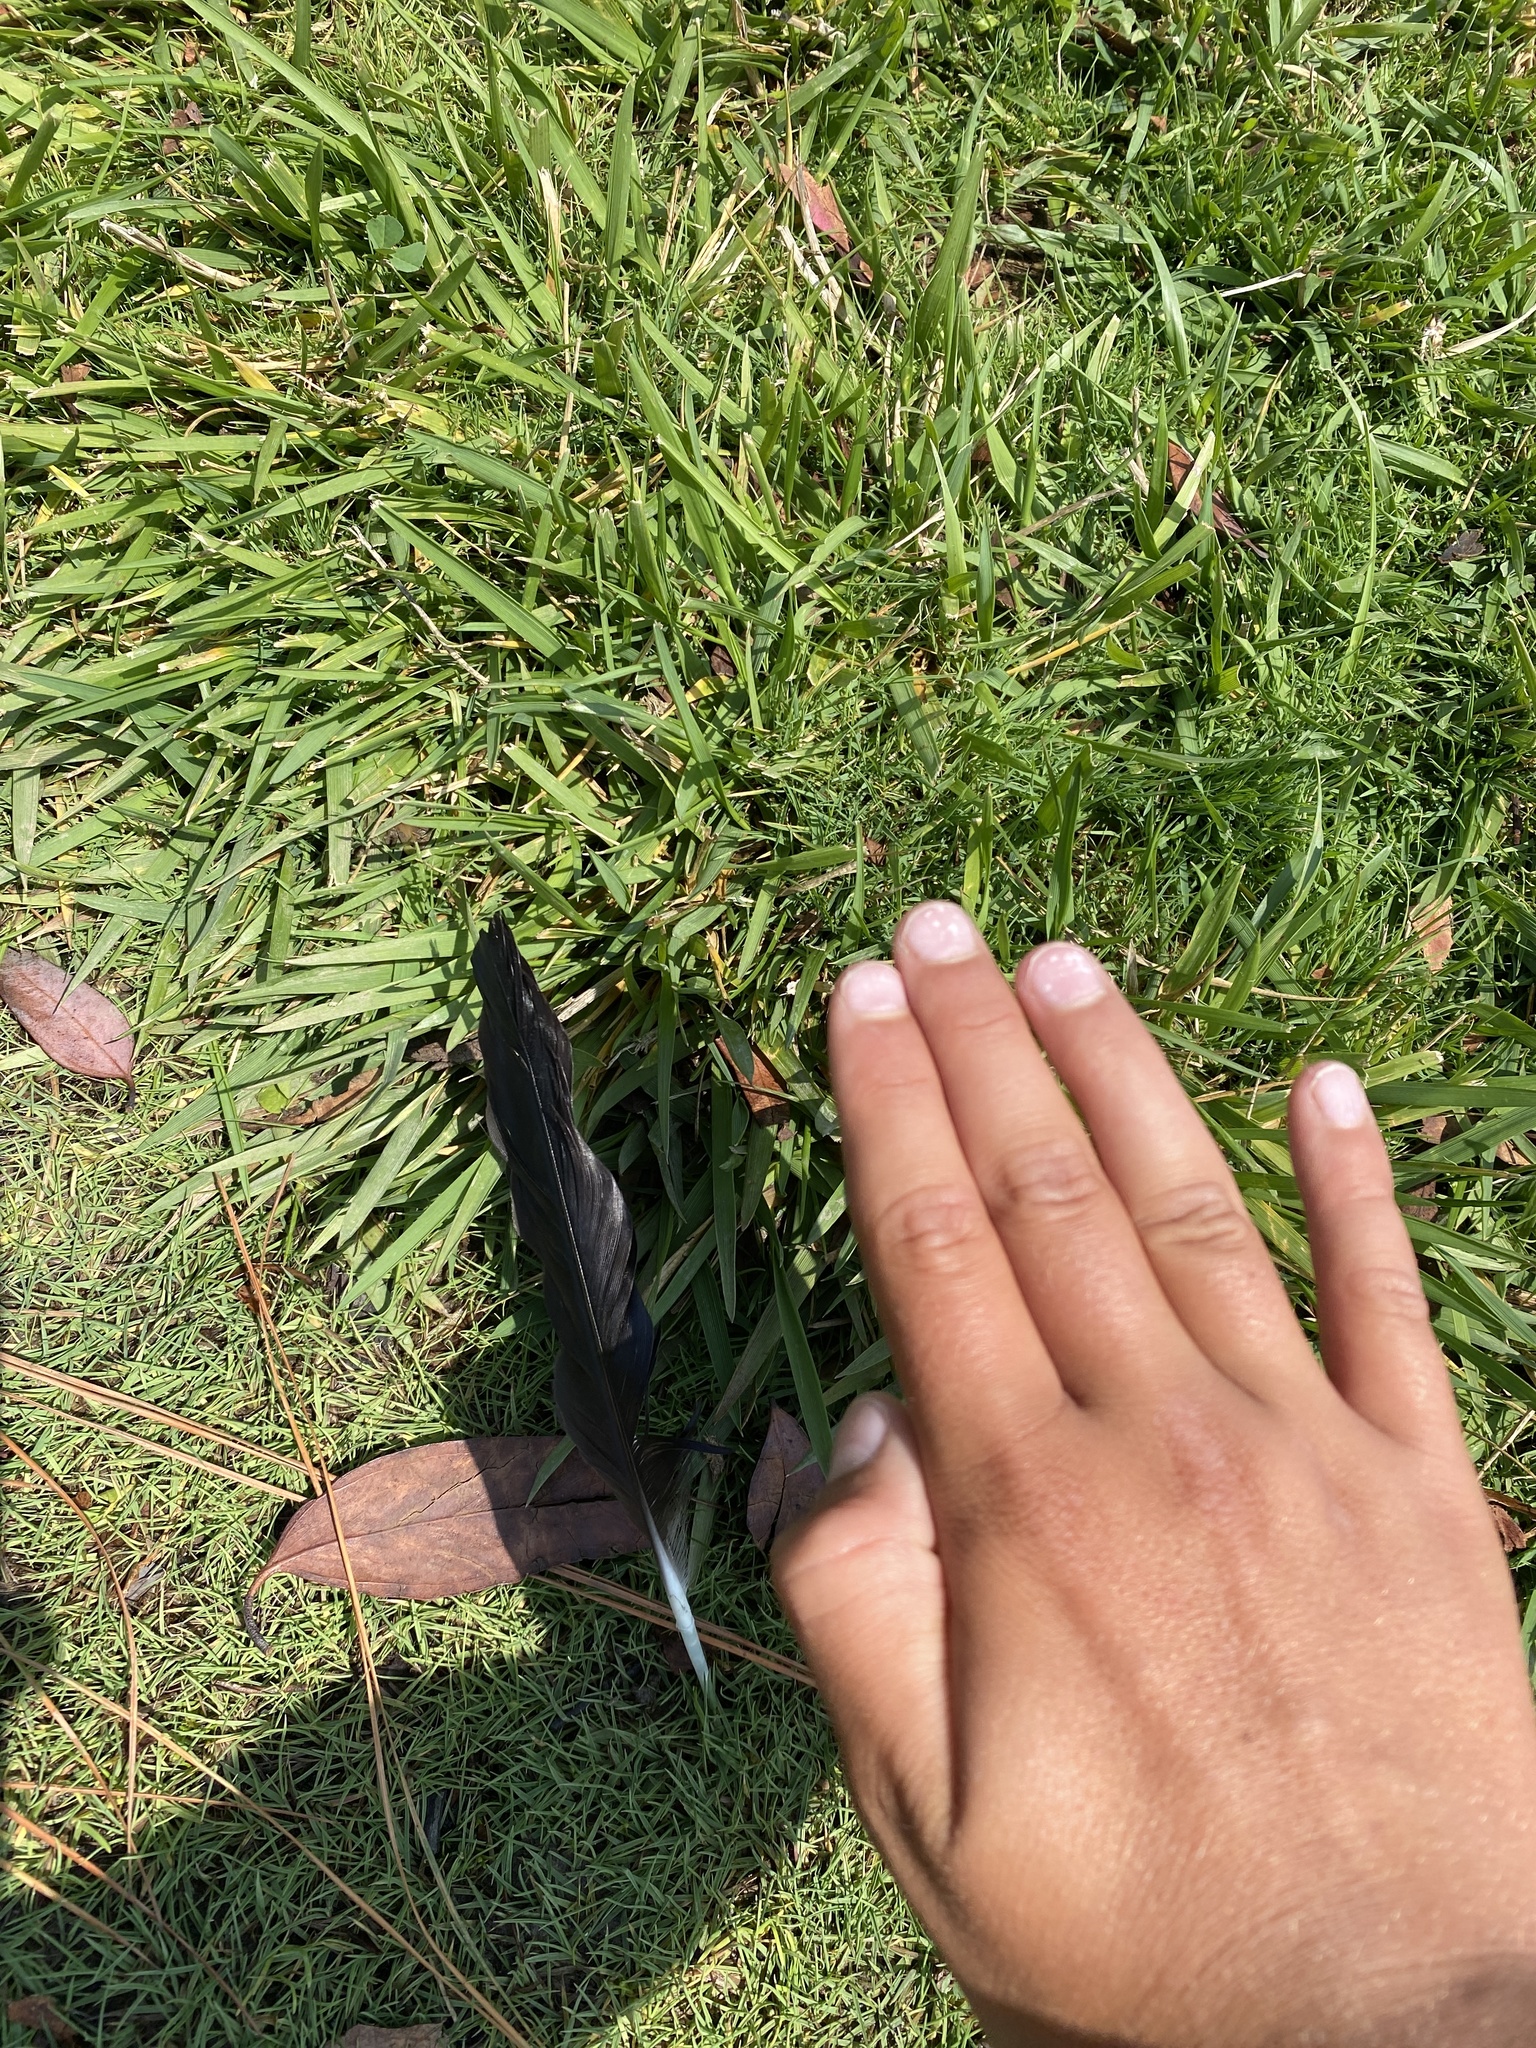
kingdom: Animalia
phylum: Chordata
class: Aves
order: Passeriformes
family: Corvidae
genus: Corvus
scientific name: Corvus brachyrhynchos
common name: American crow
